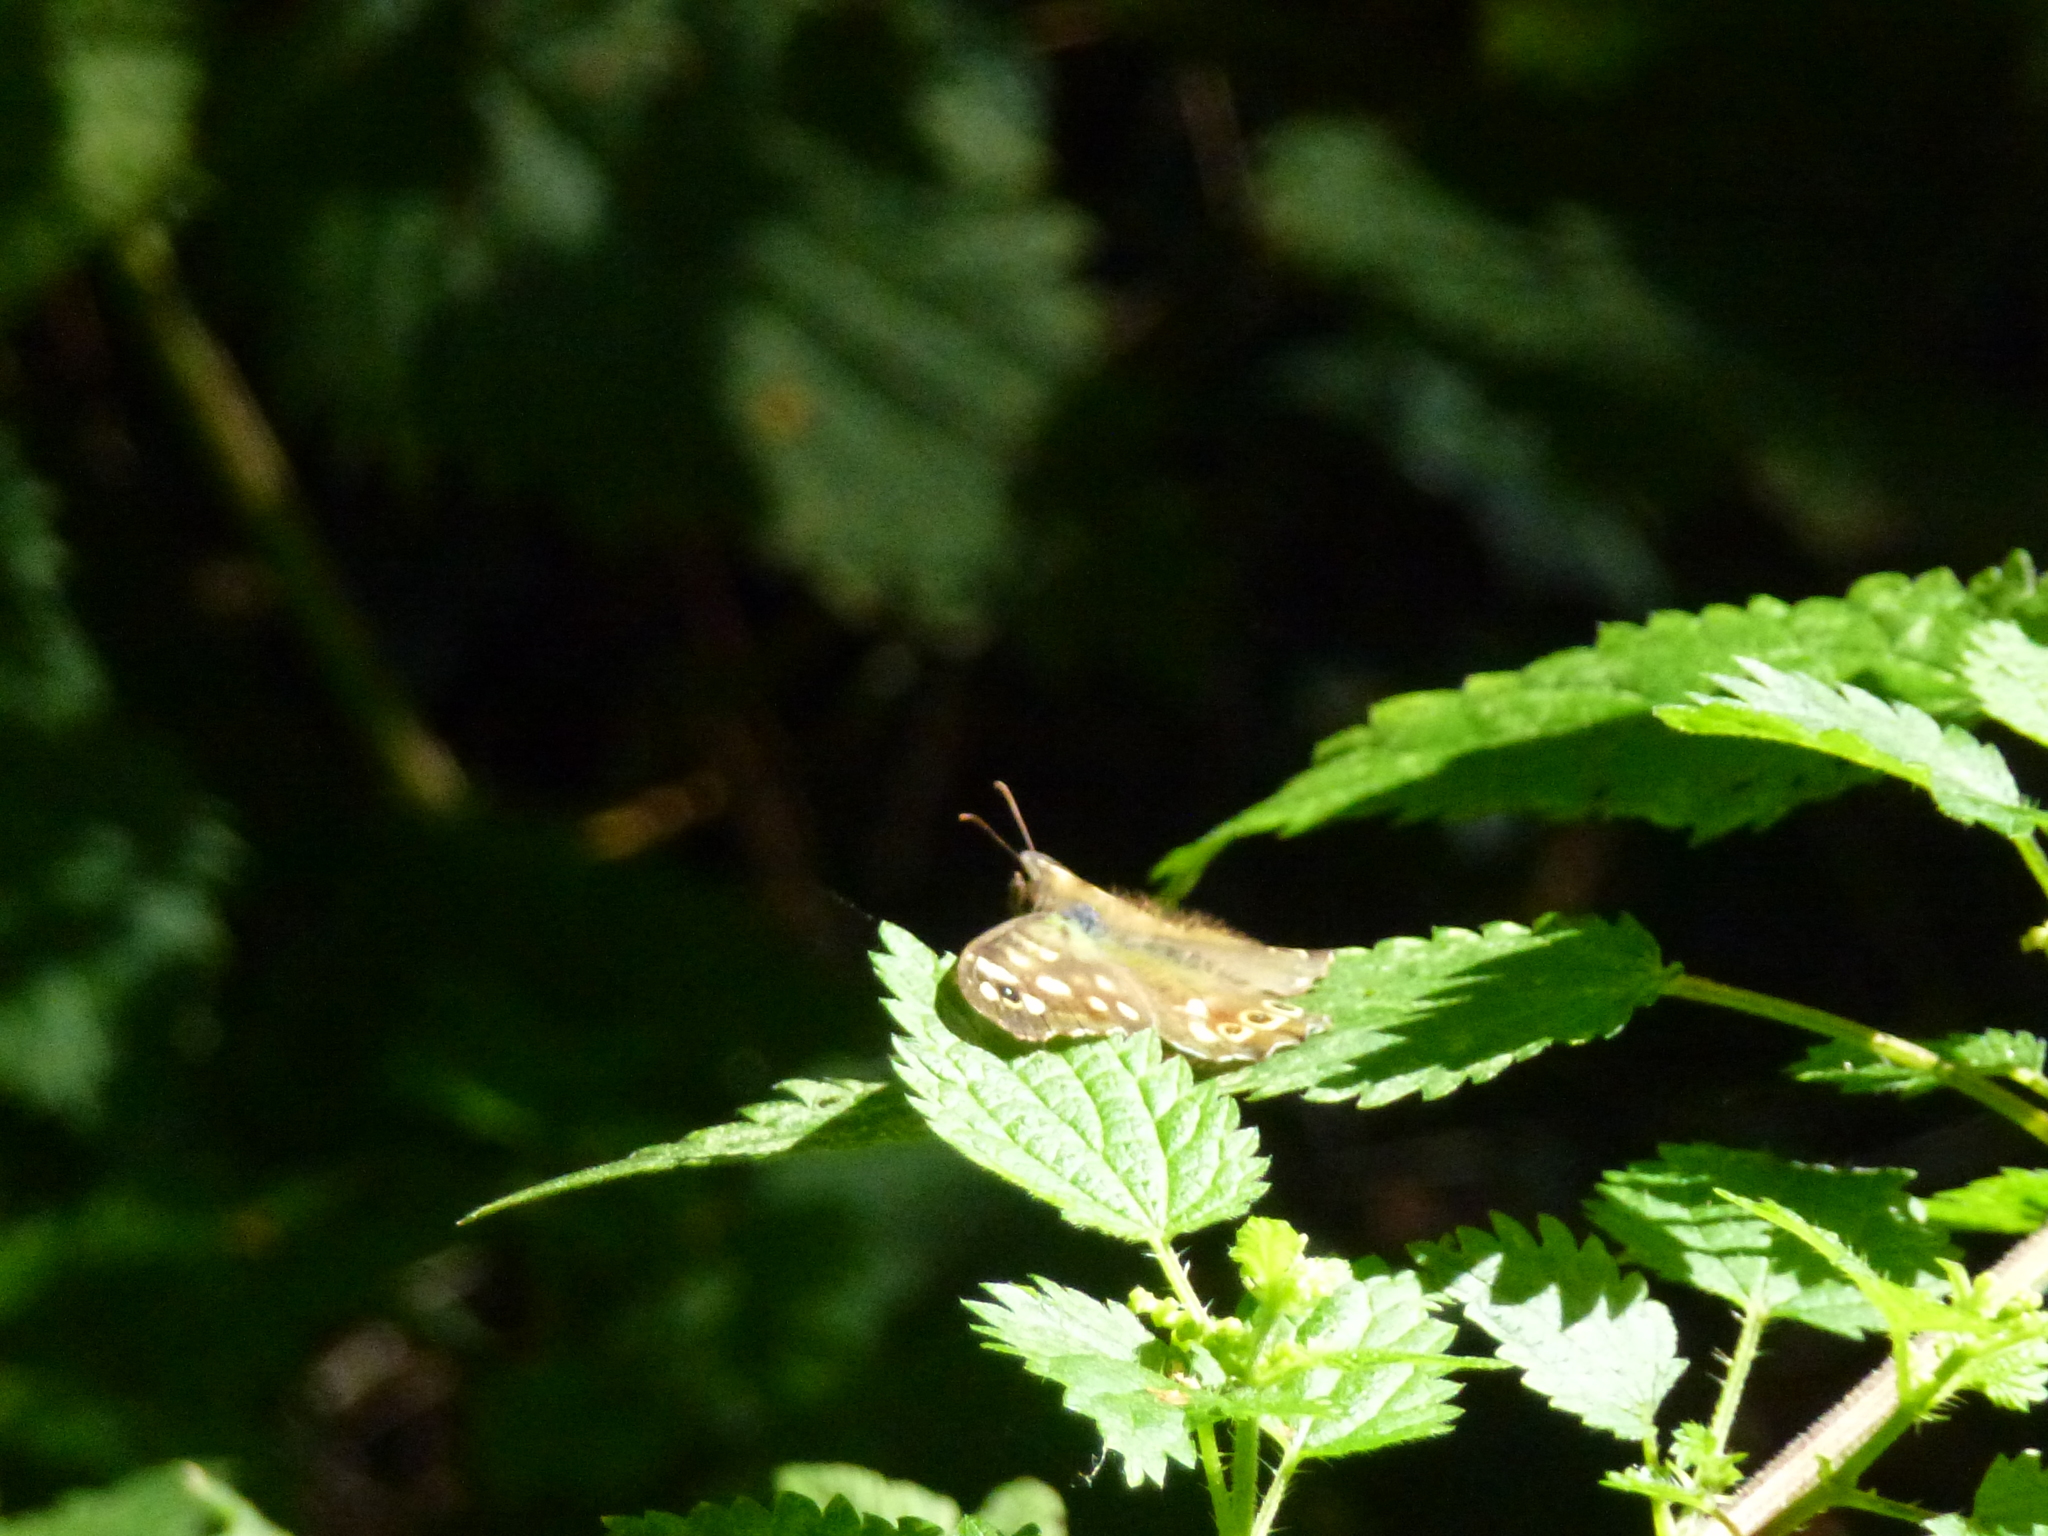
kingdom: Animalia
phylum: Arthropoda
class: Insecta
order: Lepidoptera
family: Nymphalidae
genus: Pararge
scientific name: Pararge aegeria
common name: Speckled wood
